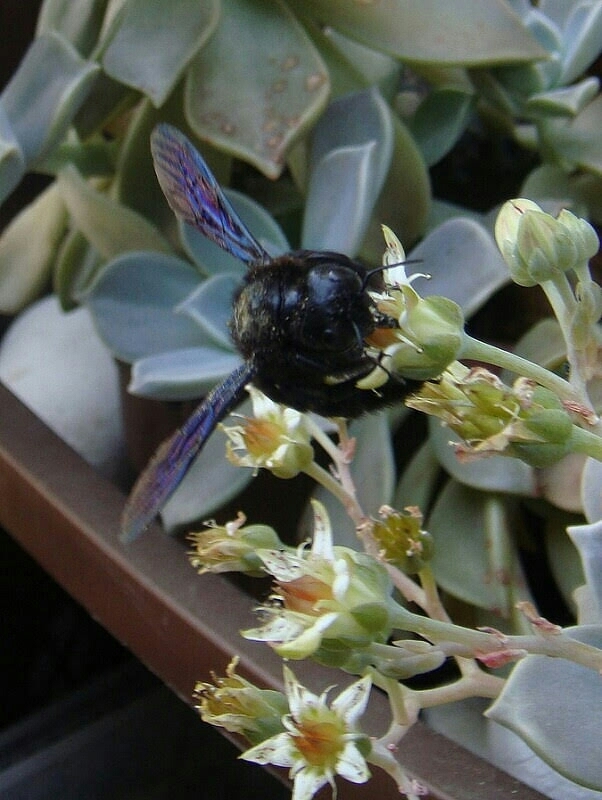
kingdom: Animalia
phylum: Arthropoda
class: Insecta
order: Hymenoptera
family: Apidae
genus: Xylocopa
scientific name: Xylocopa violacea
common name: Violet carpenter bee
